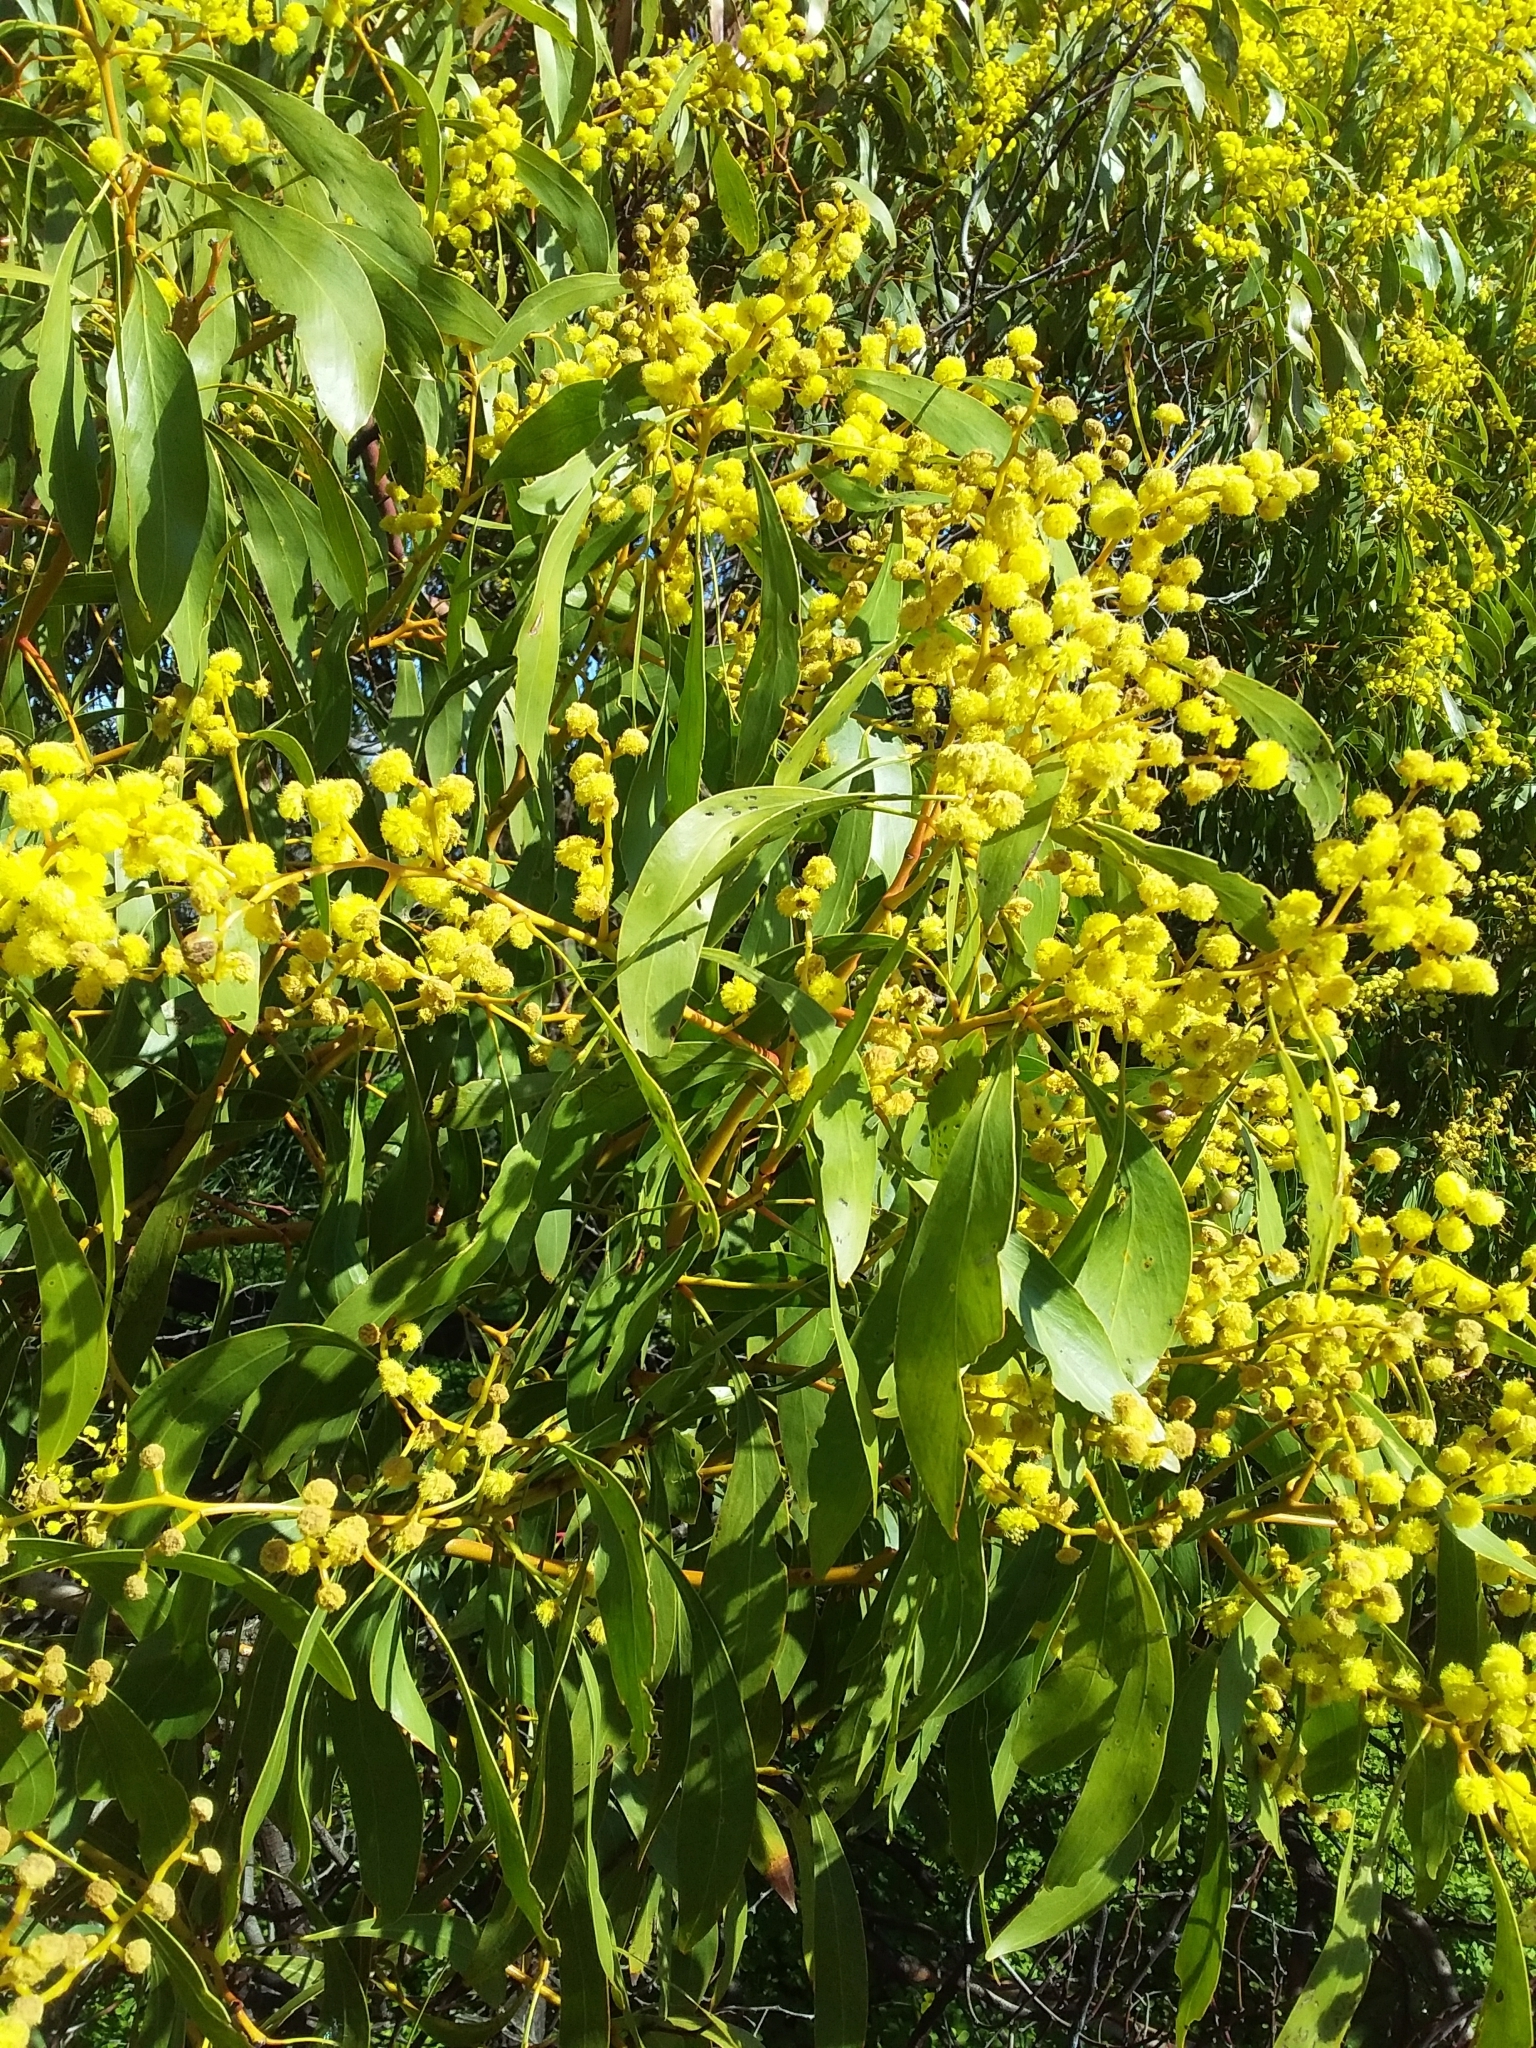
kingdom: Plantae
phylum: Tracheophyta
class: Magnoliopsida
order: Fabales
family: Fabaceae
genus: Acacia
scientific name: Acacia pycnantha
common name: Golden wattle
